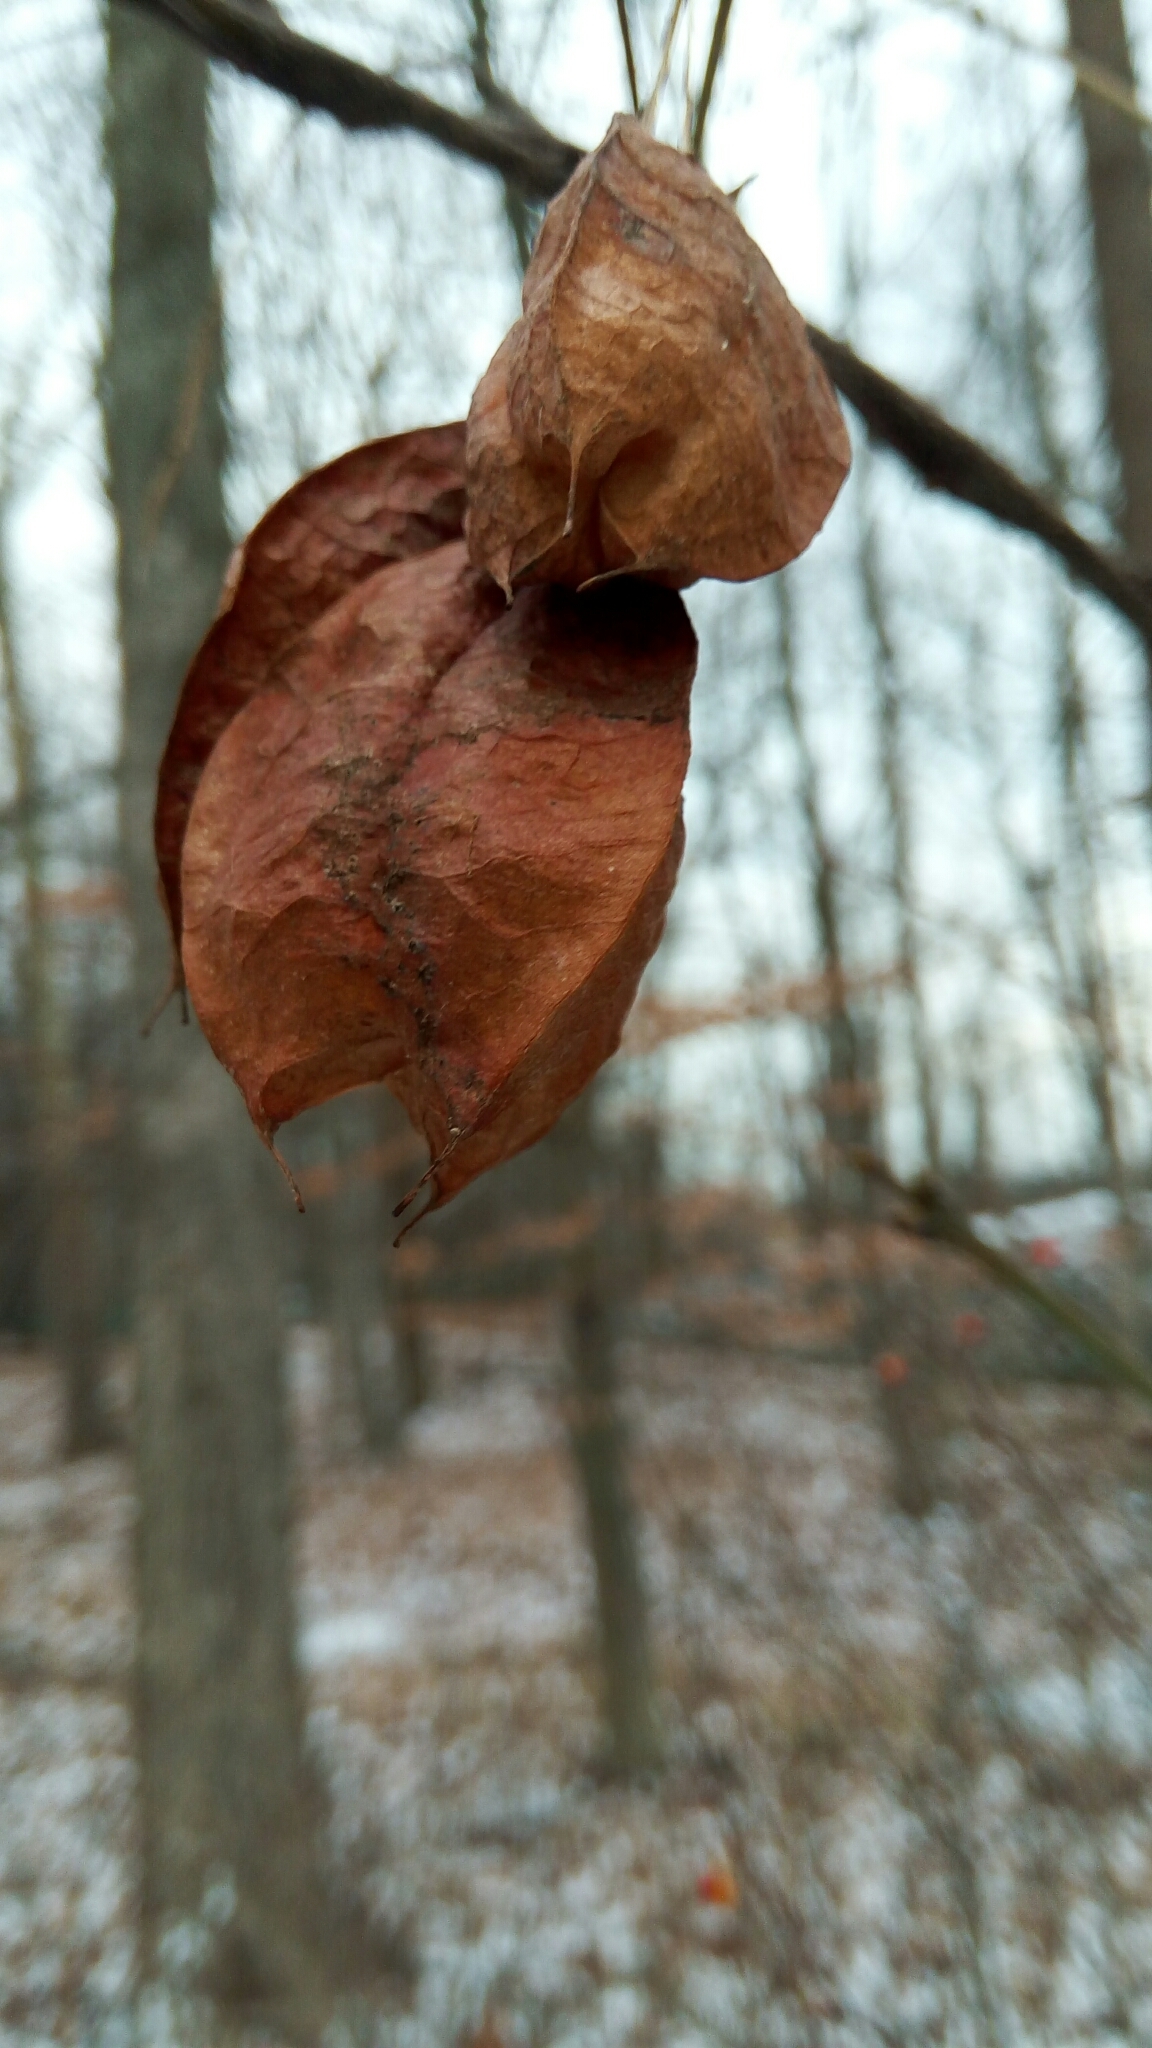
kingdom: Plantae
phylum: Tracheophyta
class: Magnoliopsida
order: Crossosomatales
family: Staphyleaceae
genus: Staphylea
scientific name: Staphylea trifolia
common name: American bladdernut
